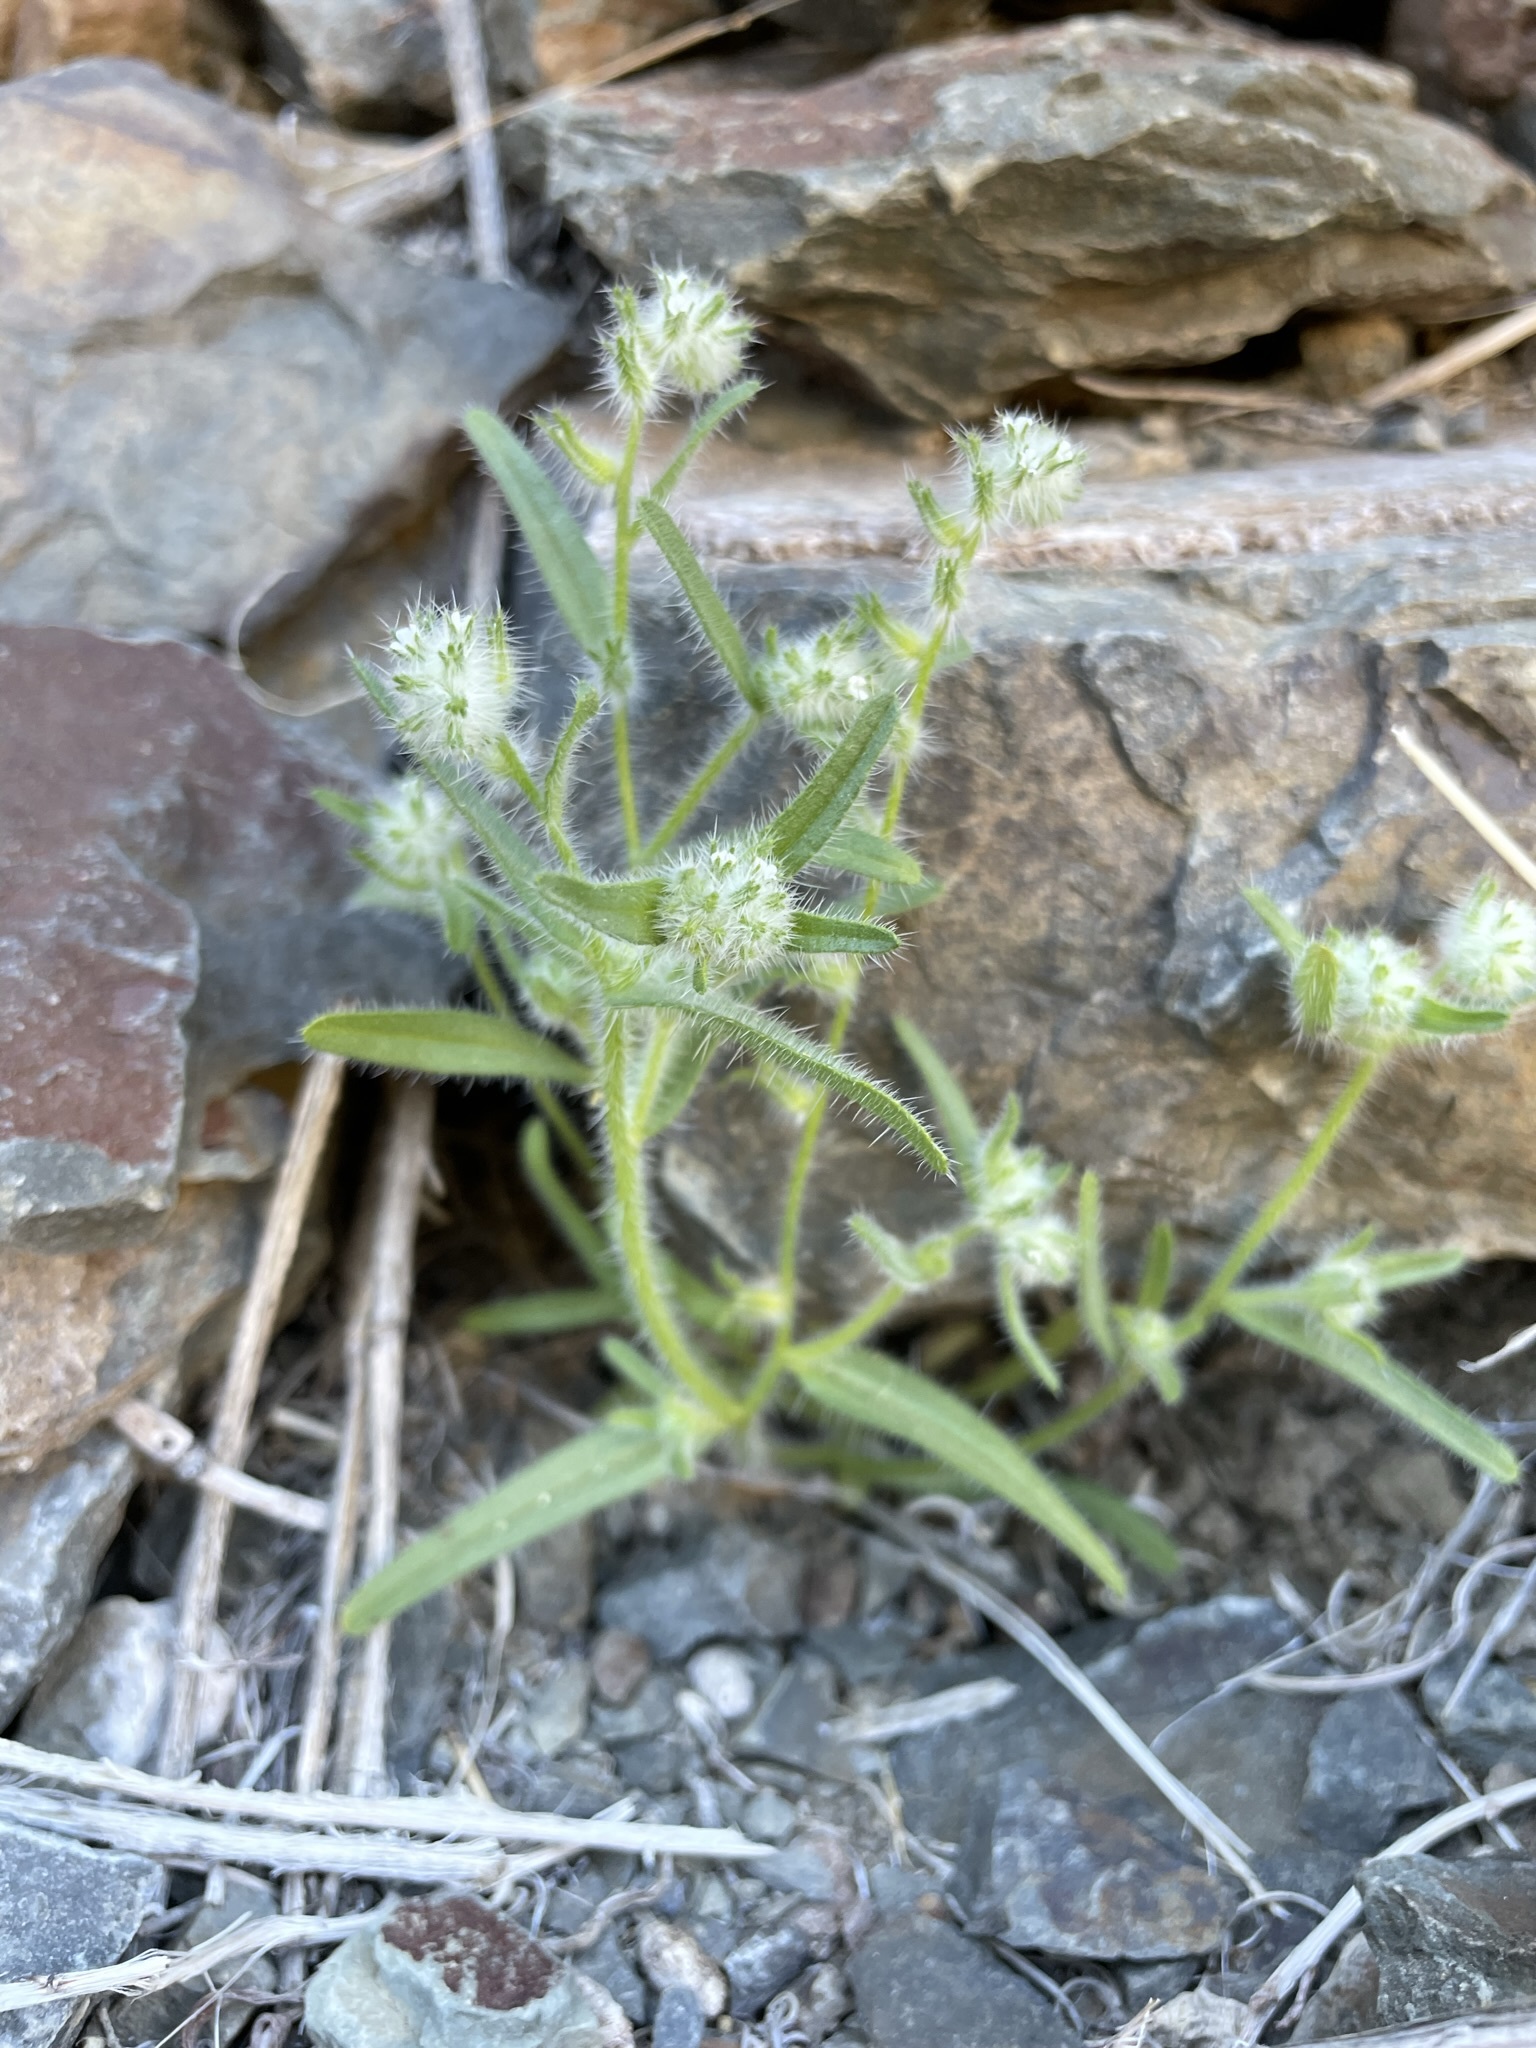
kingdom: Plantae
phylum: Tracheophyta
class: Magnoliopsida
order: Boraginales
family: Boraginaceae
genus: Cryptantha
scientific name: Cryptantha barbigera
